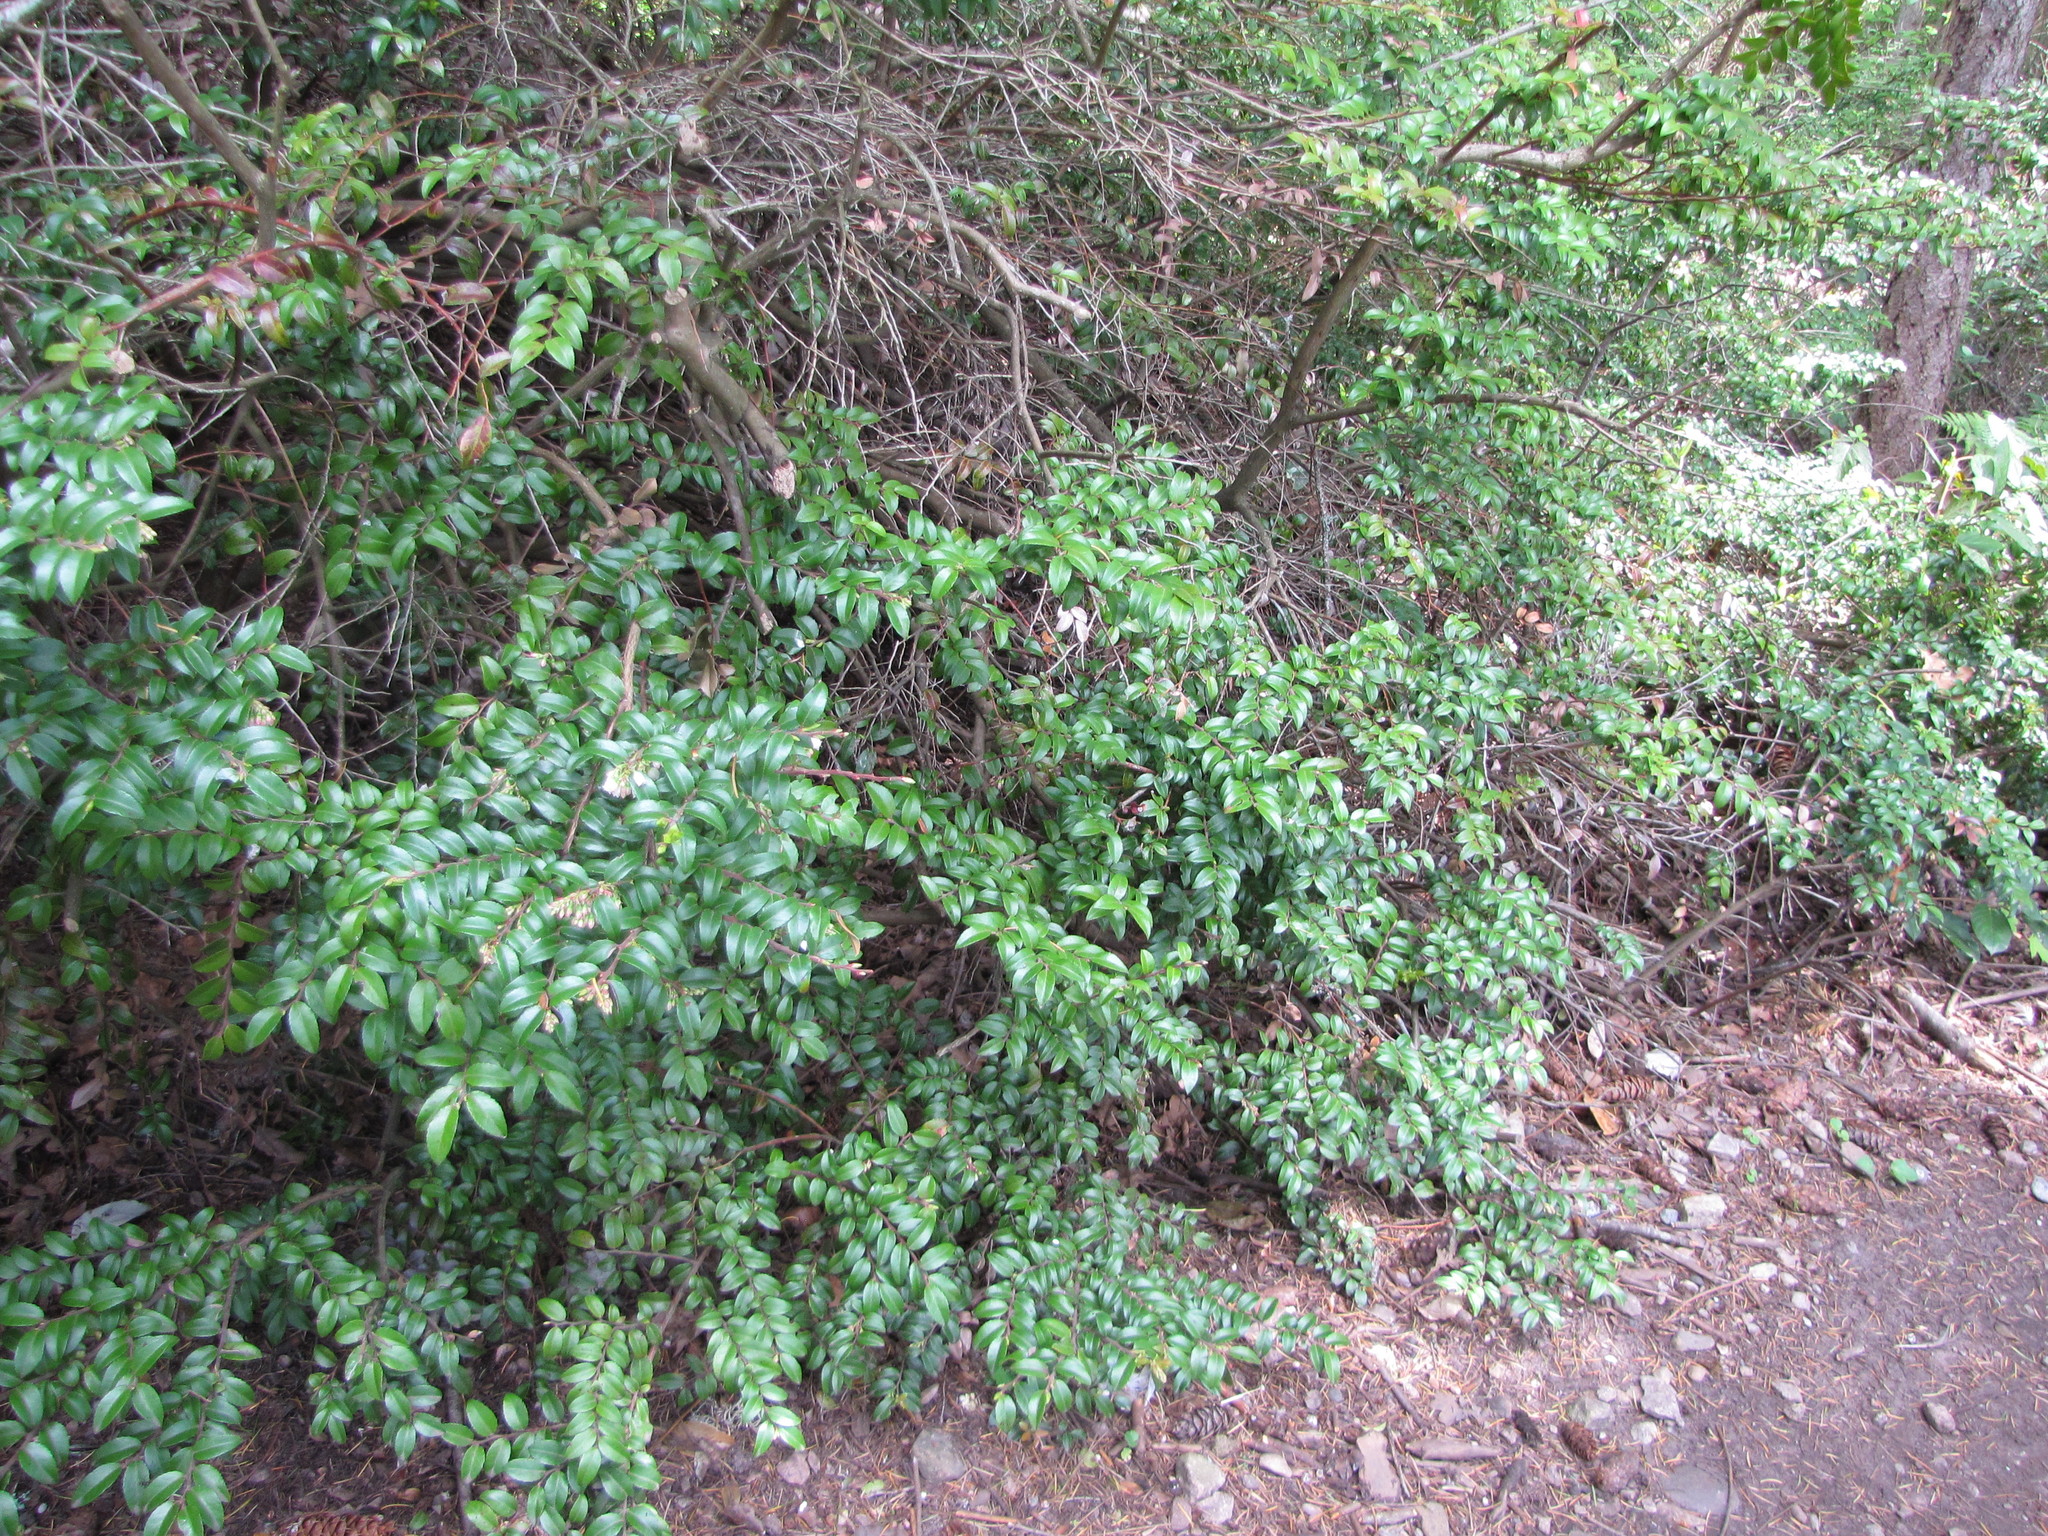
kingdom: Plantae
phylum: Tracheophyta
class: Magnoliopsida
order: Ericales
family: Ericaceae
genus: Vaccinium
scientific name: Vaccinium ovatum
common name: California-huckleberry
